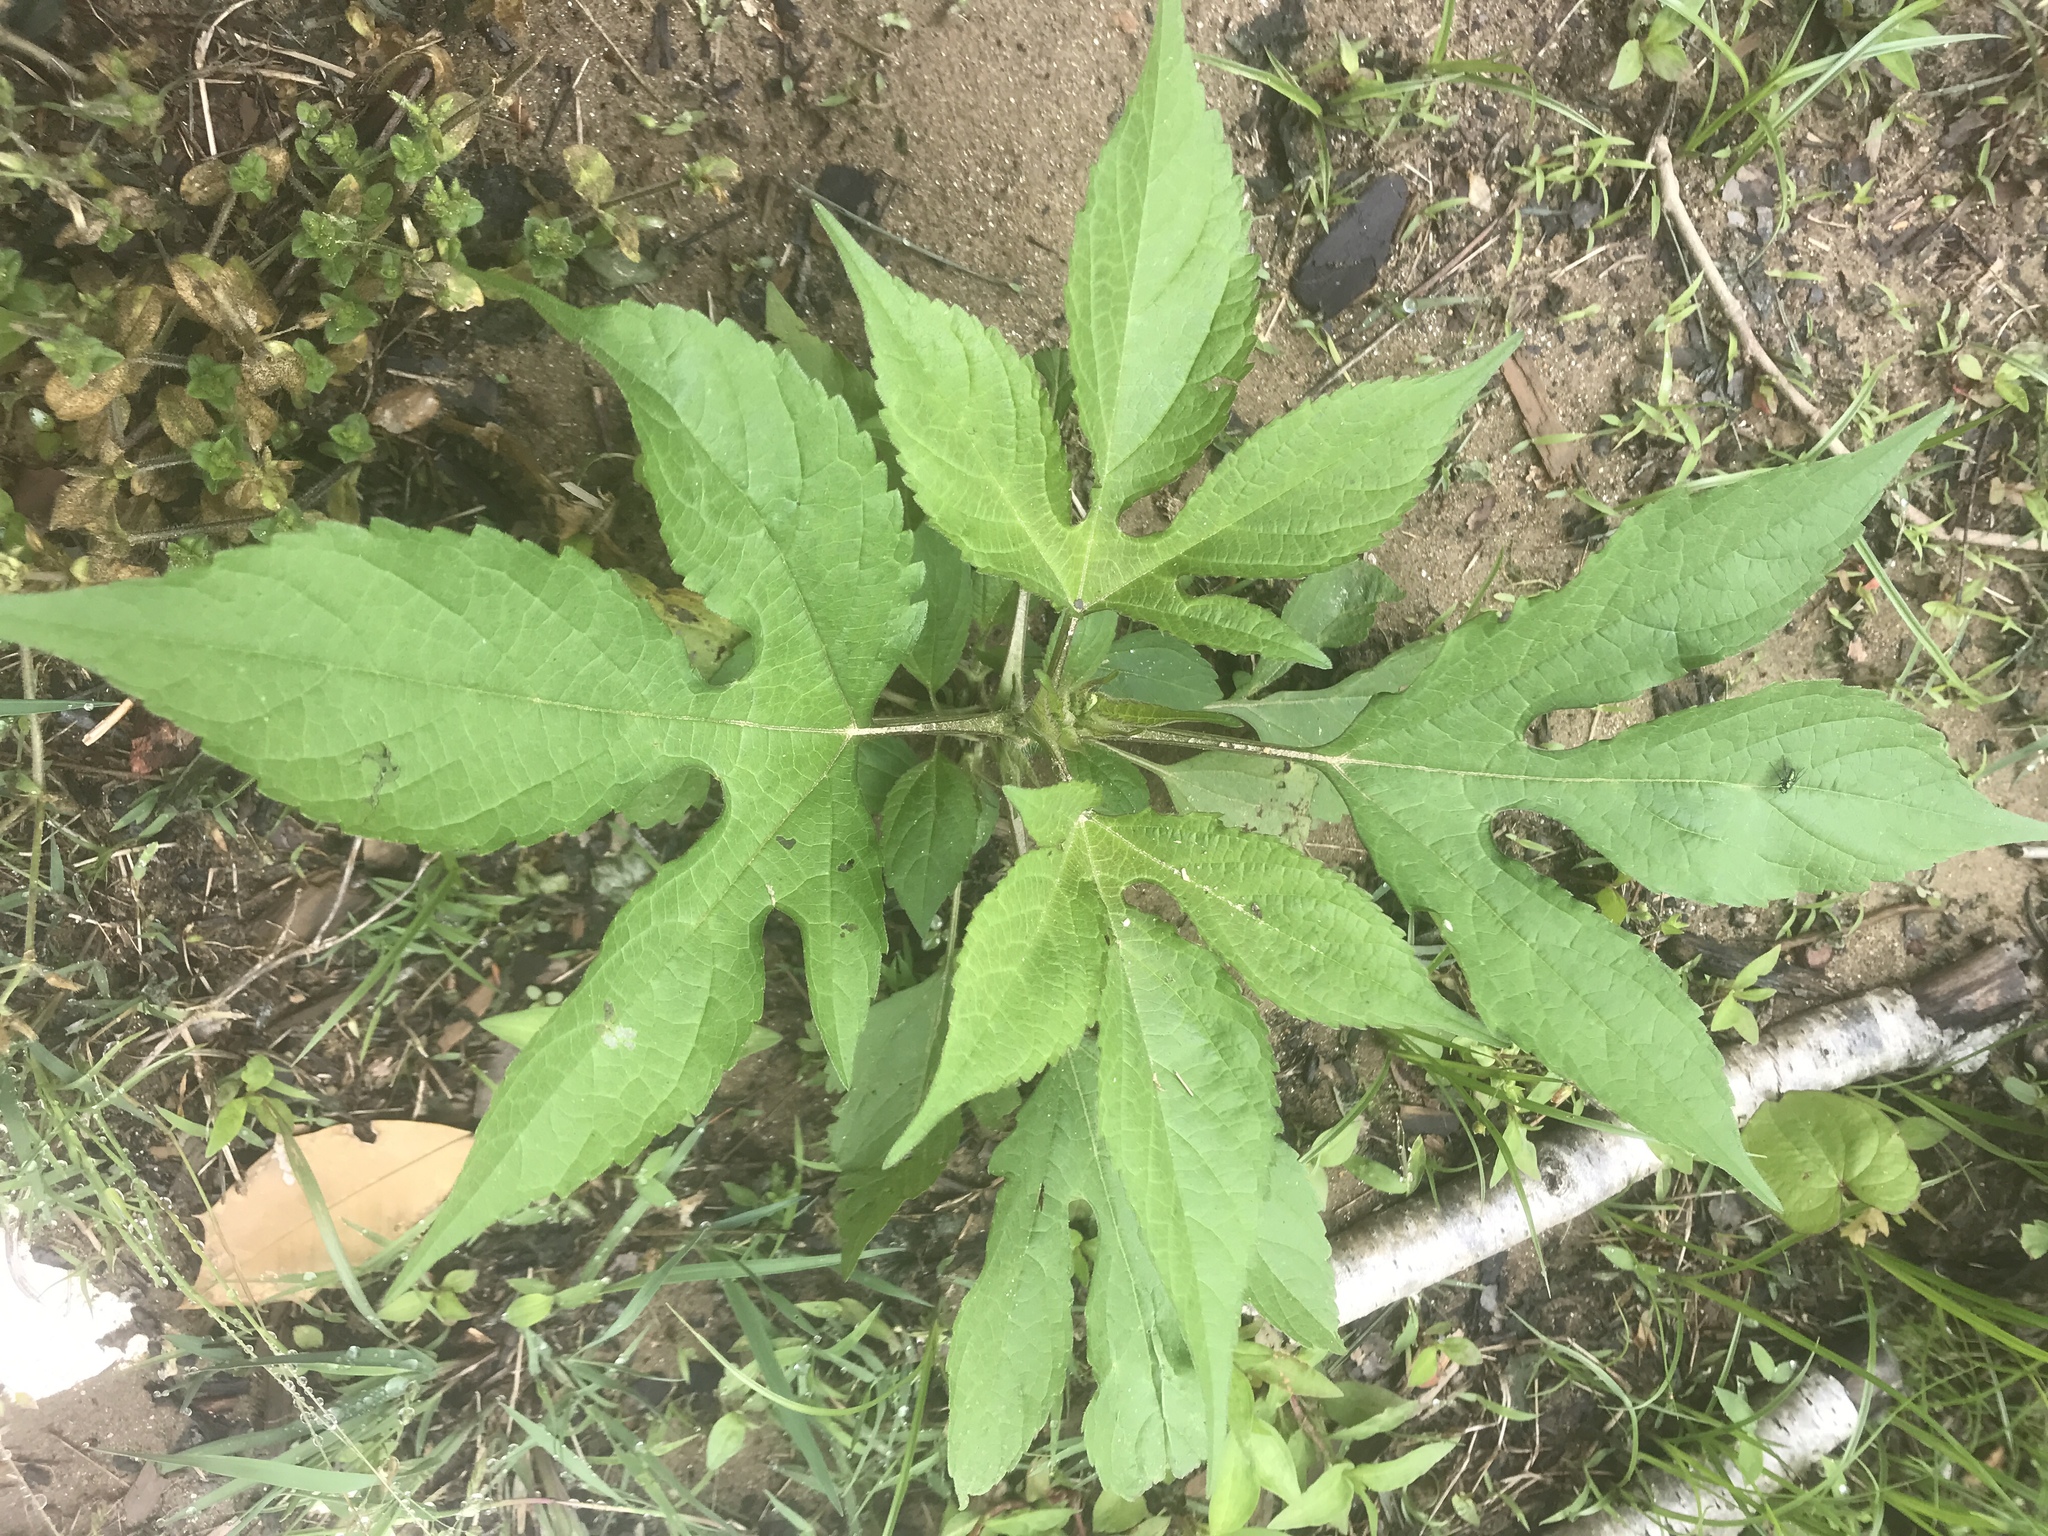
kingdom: Plantae
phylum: Tracheophyta
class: Magnoliopsida
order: Asterales
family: Asteraceae
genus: Ambrosia
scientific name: Ambrosia trifida
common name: Giant ragweed
